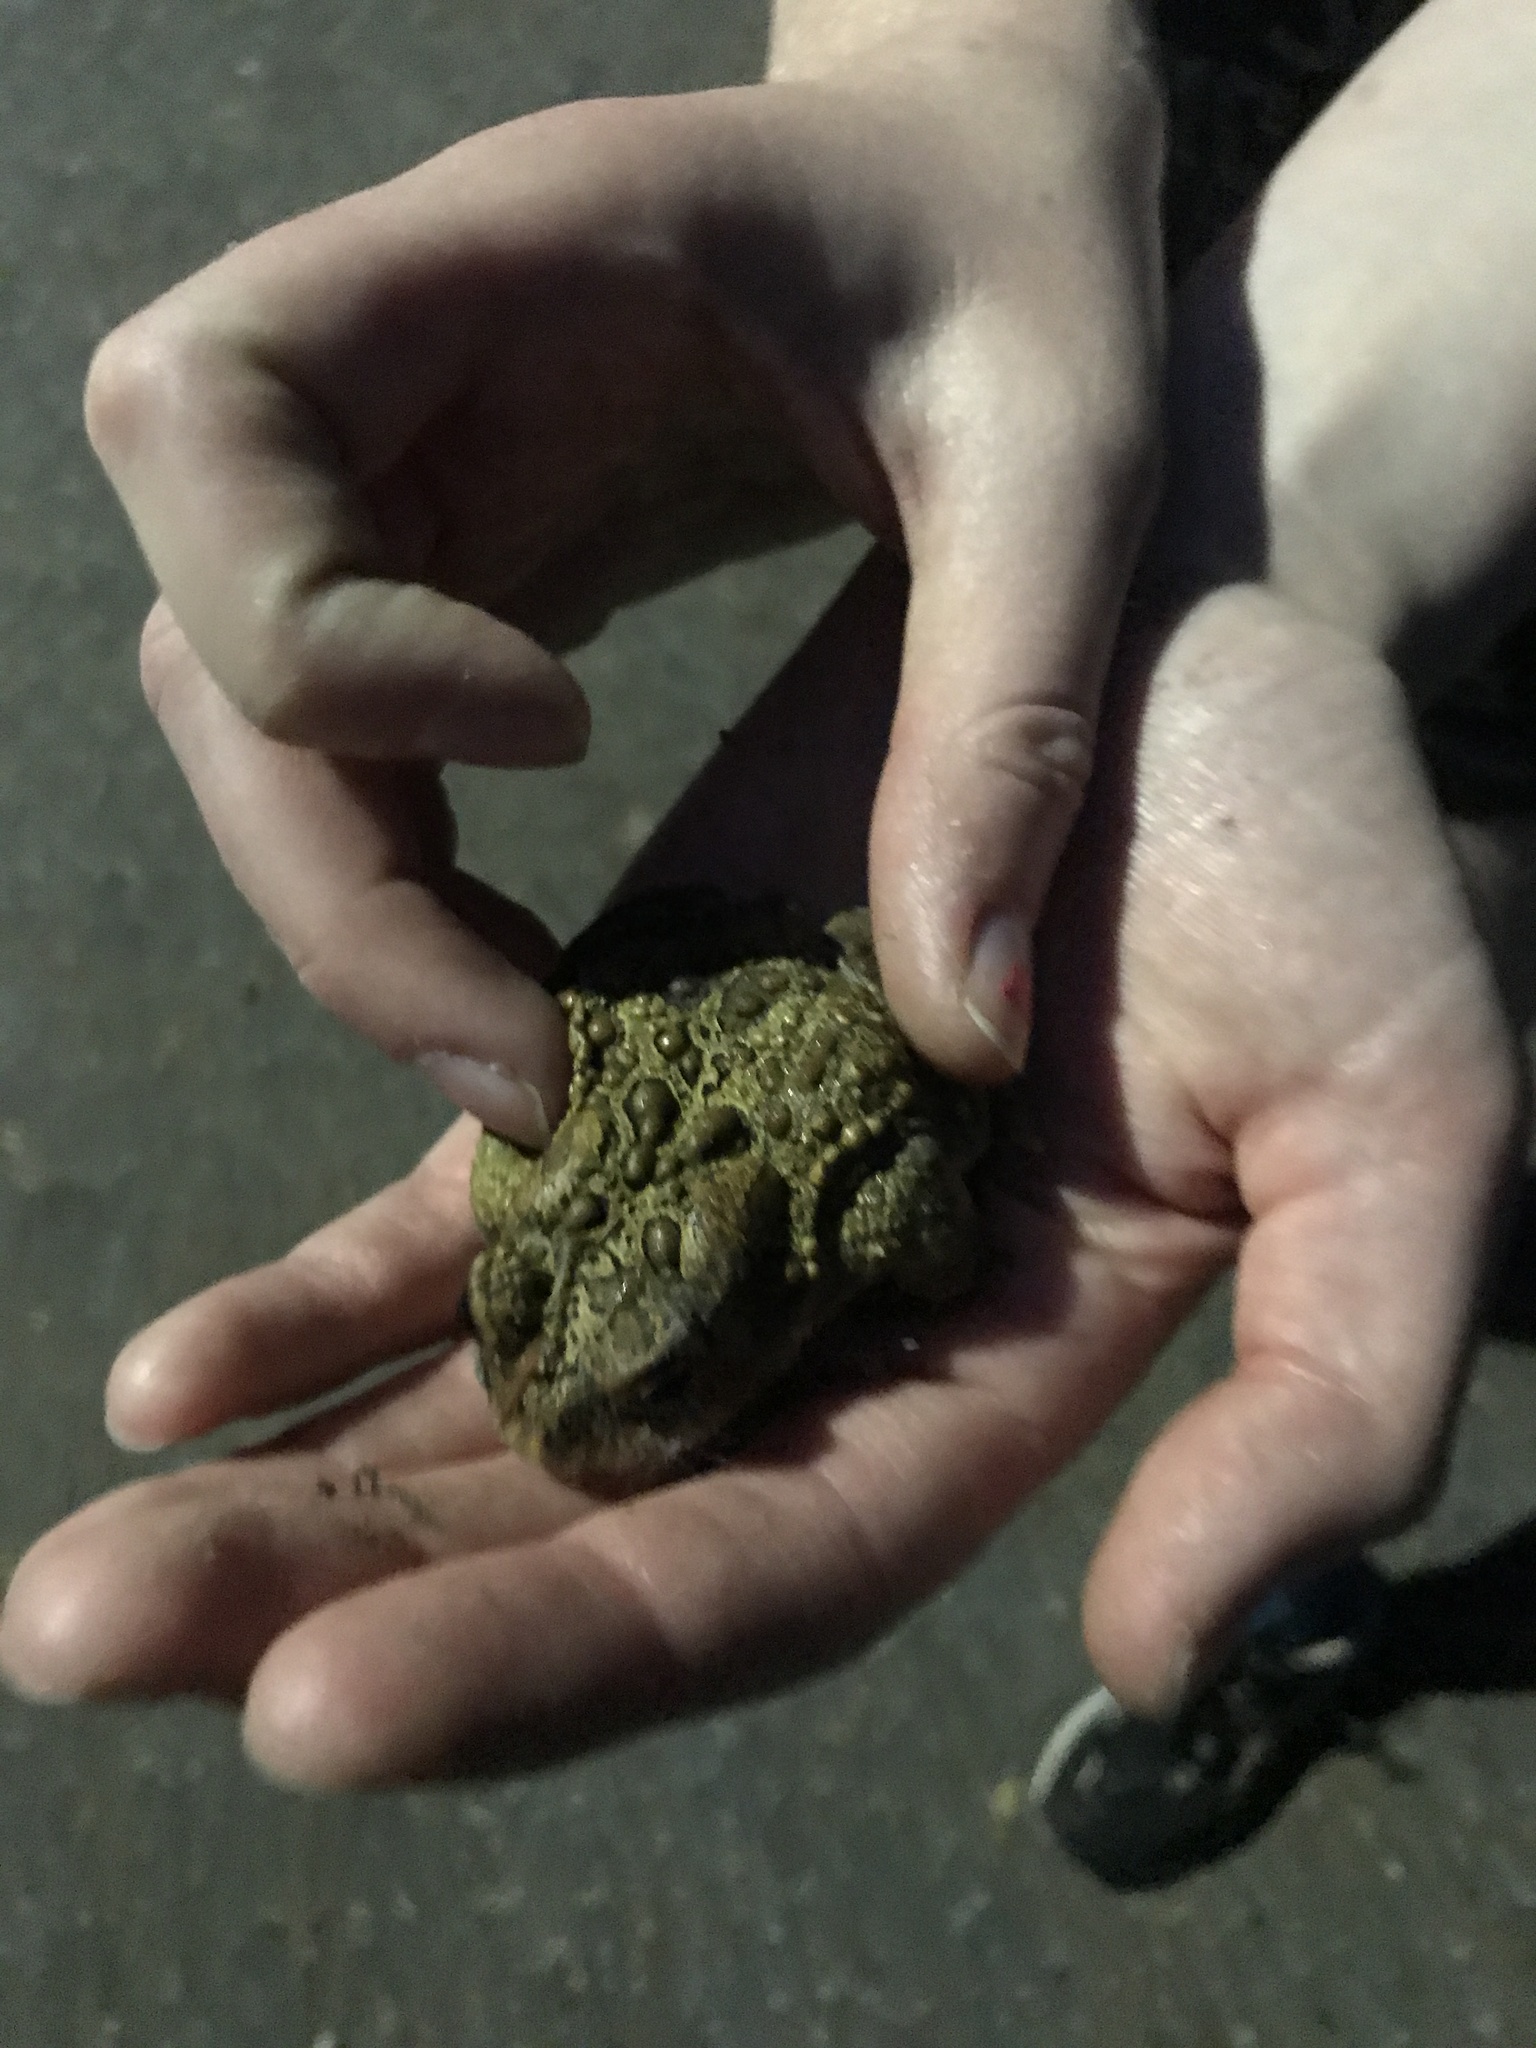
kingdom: Animalia
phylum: Chordata
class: Amphibia
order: Anura
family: Bufonidae
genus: Anaxyrus
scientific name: Anaxyrus americanus
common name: American toad
